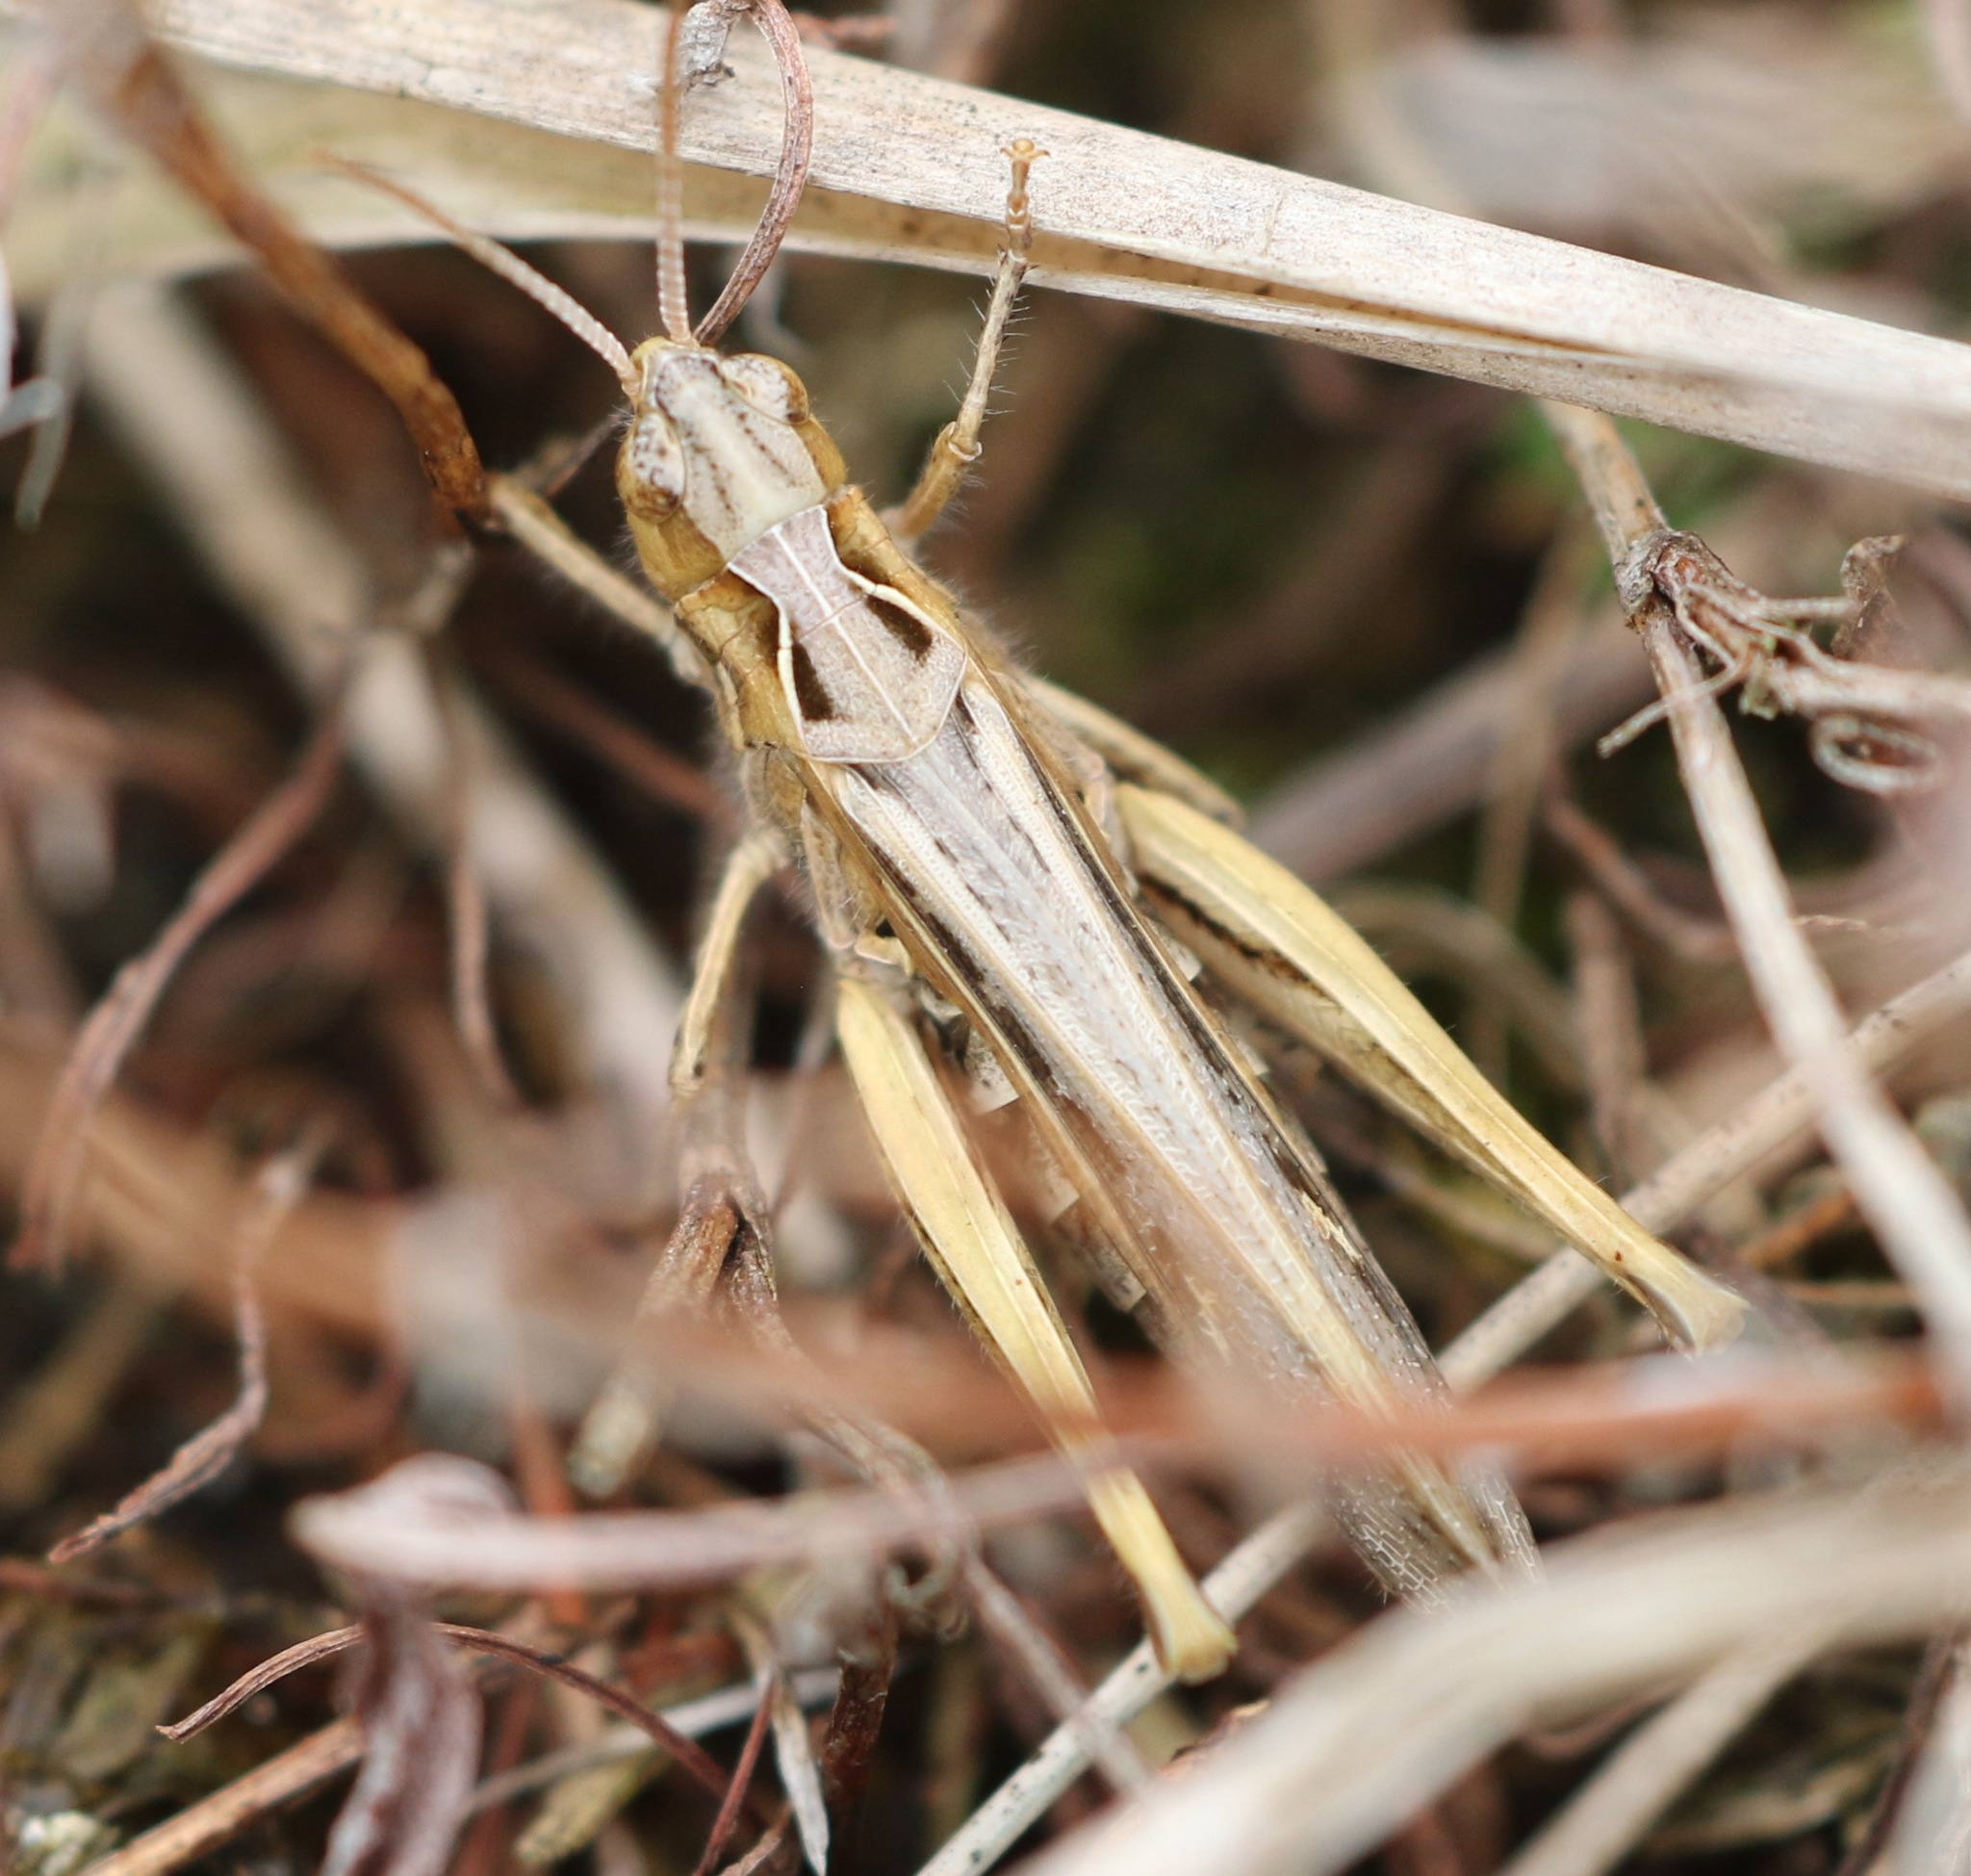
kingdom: Animalia
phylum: Arthropoda
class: Insecta
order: Orthoptera
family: Acrididae
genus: Chorthippus
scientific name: Chorthippus brunneus
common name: Field grasshopper
